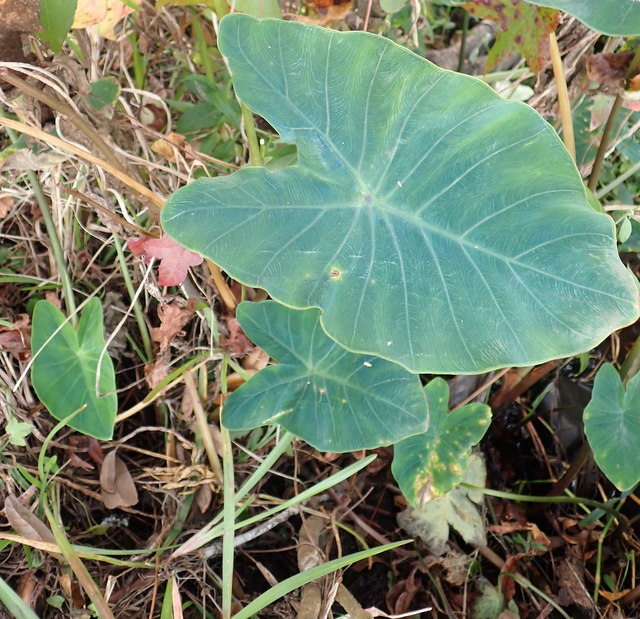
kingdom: Plantae
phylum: Tracheophyta
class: Liliopsida
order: Alismatales
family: Araceae
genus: Colocasia
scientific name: Colocasia esculenta
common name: Taro
